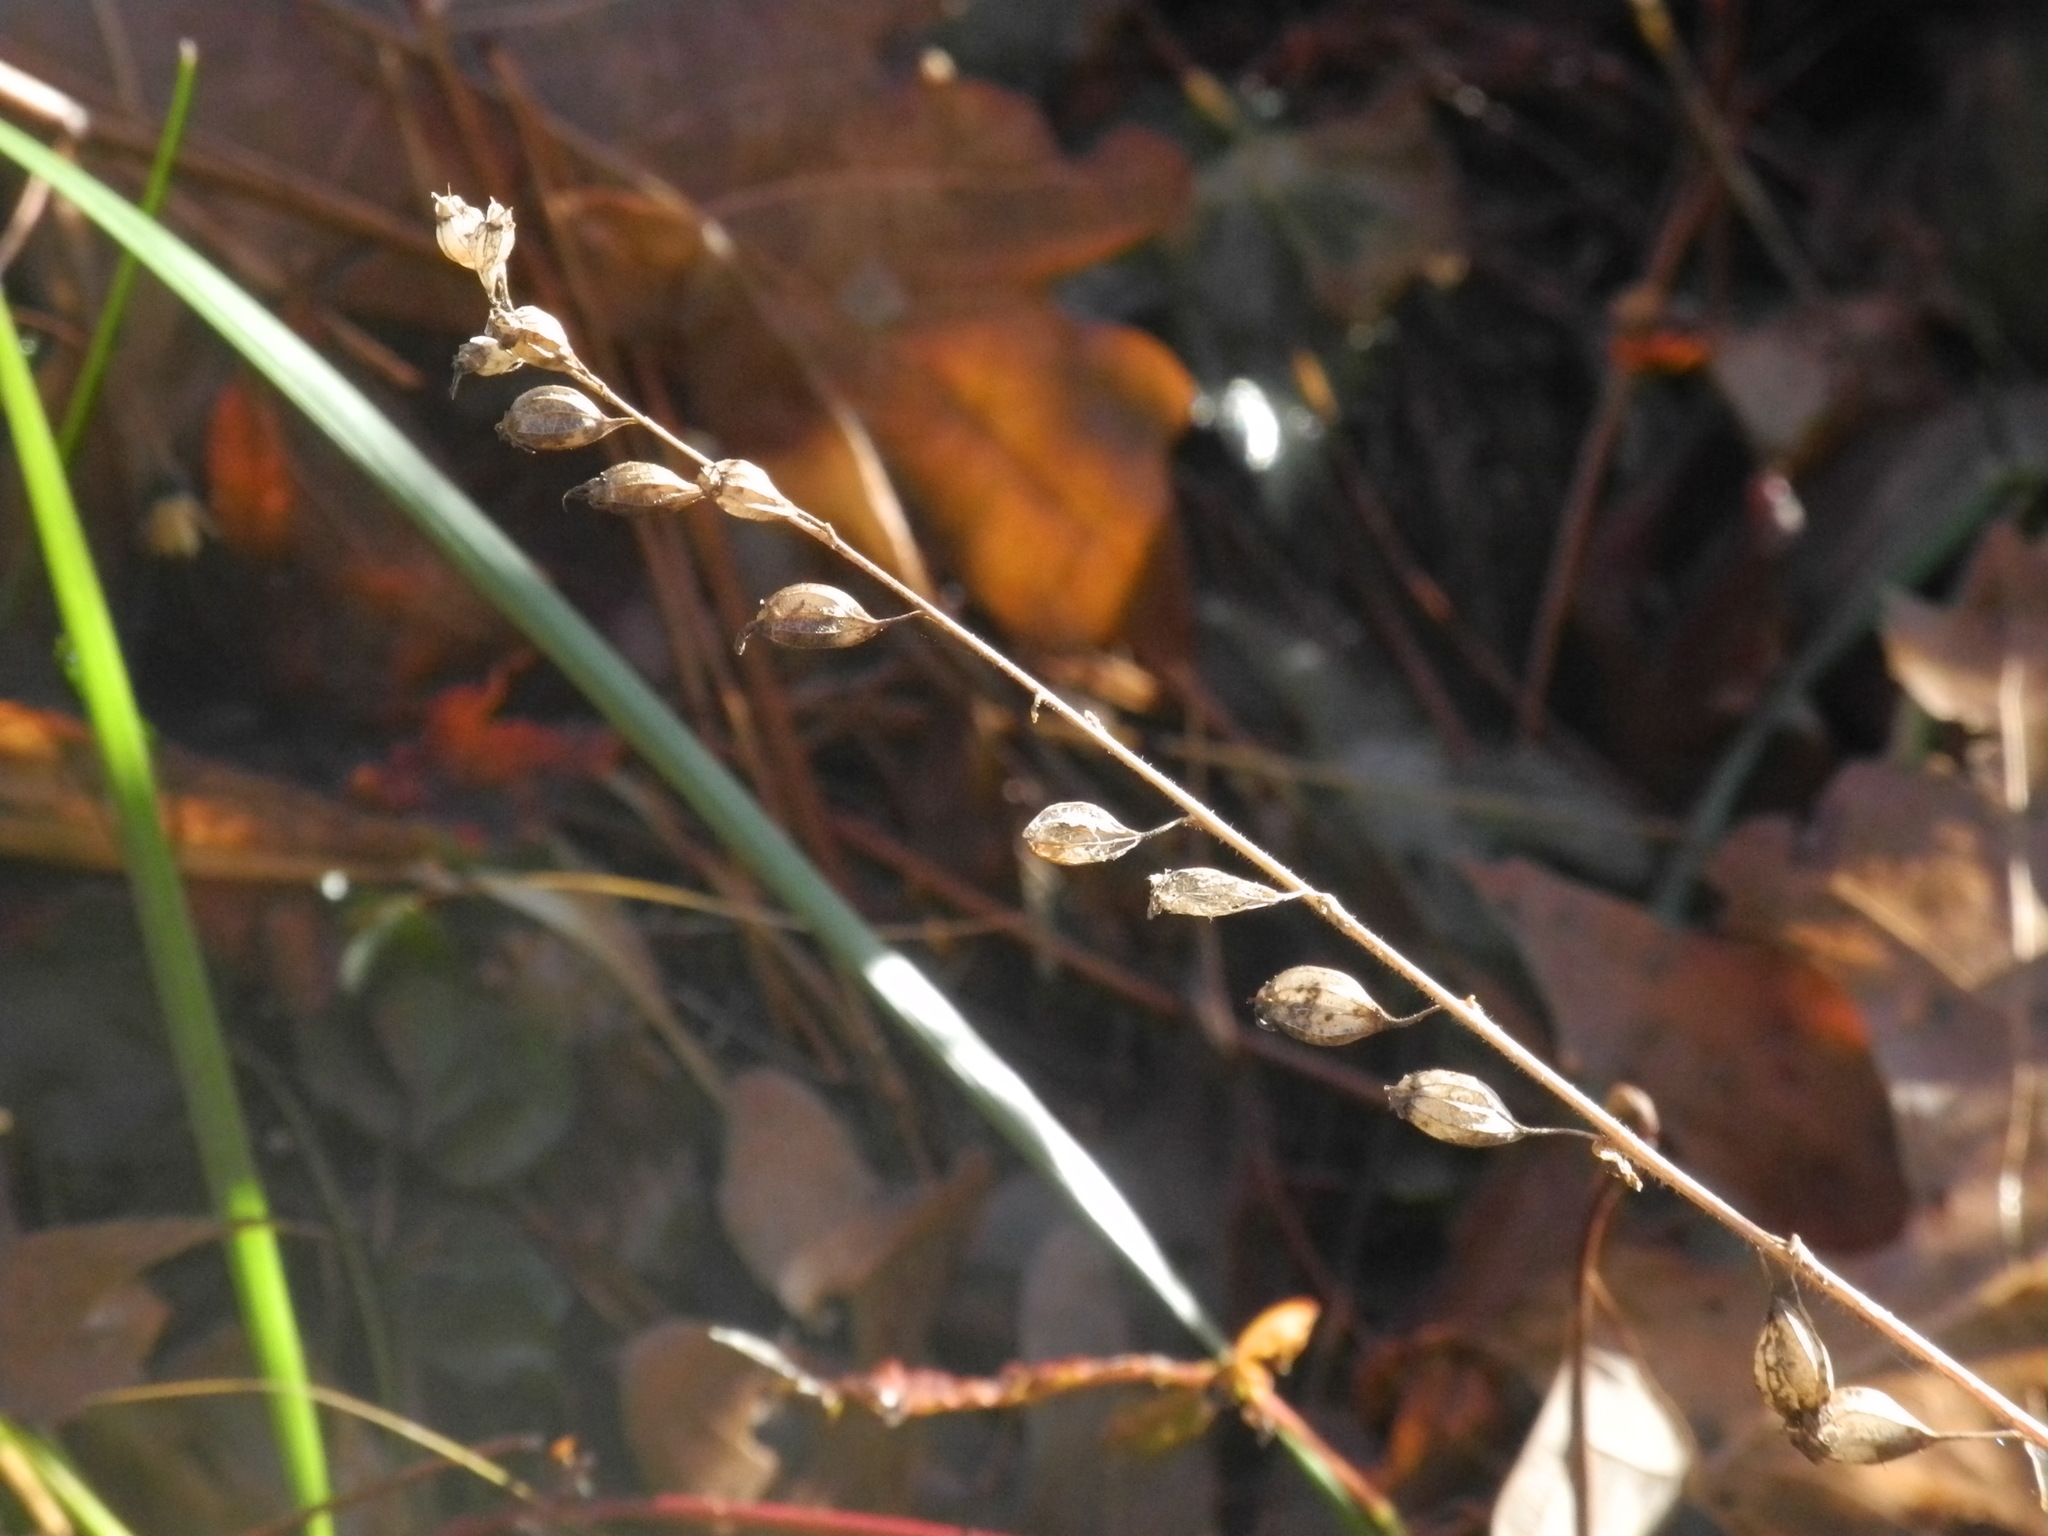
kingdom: Plantae
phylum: Tracheophyta
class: Magnoliopsida
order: Asterales
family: Asteraceae
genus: Hieracium
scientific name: Hieracium gronovii
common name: Beaked hawkweed
